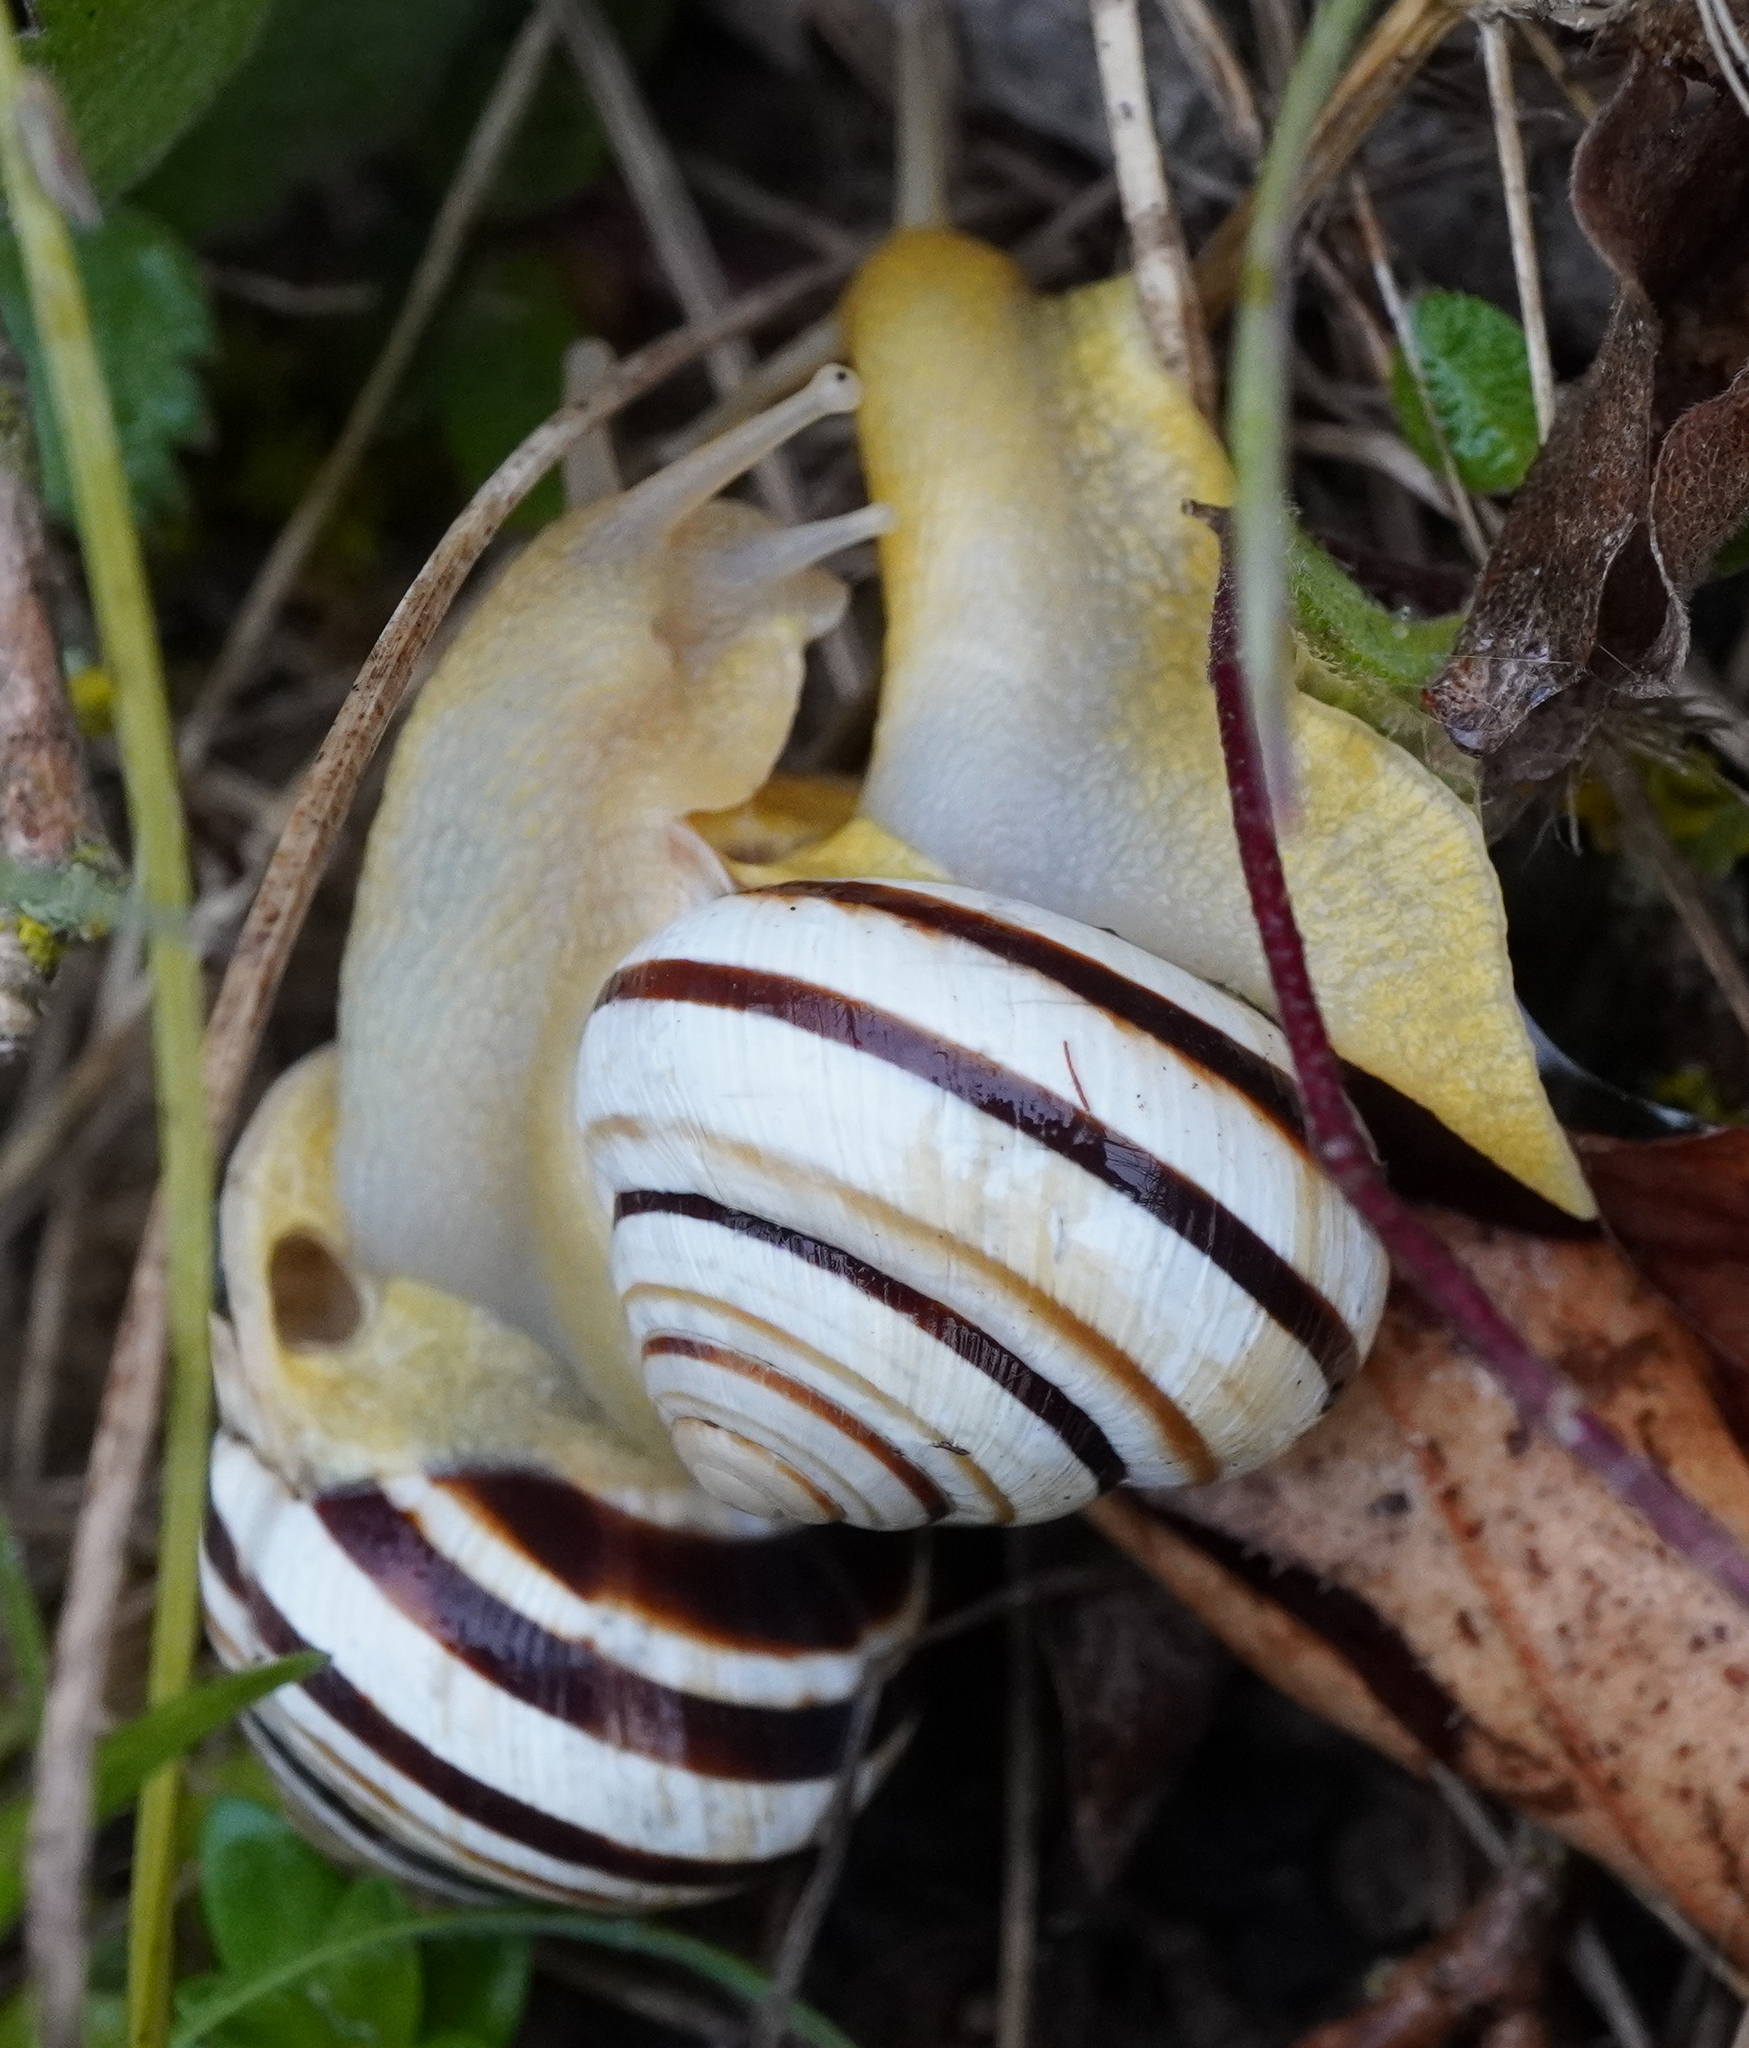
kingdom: Animalia
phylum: Mollusca
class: Gastropoda
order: Stylommatophora
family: Helicidae
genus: Caucasotachea
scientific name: Caucasotachea vindobonensis
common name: European helicid land snail
